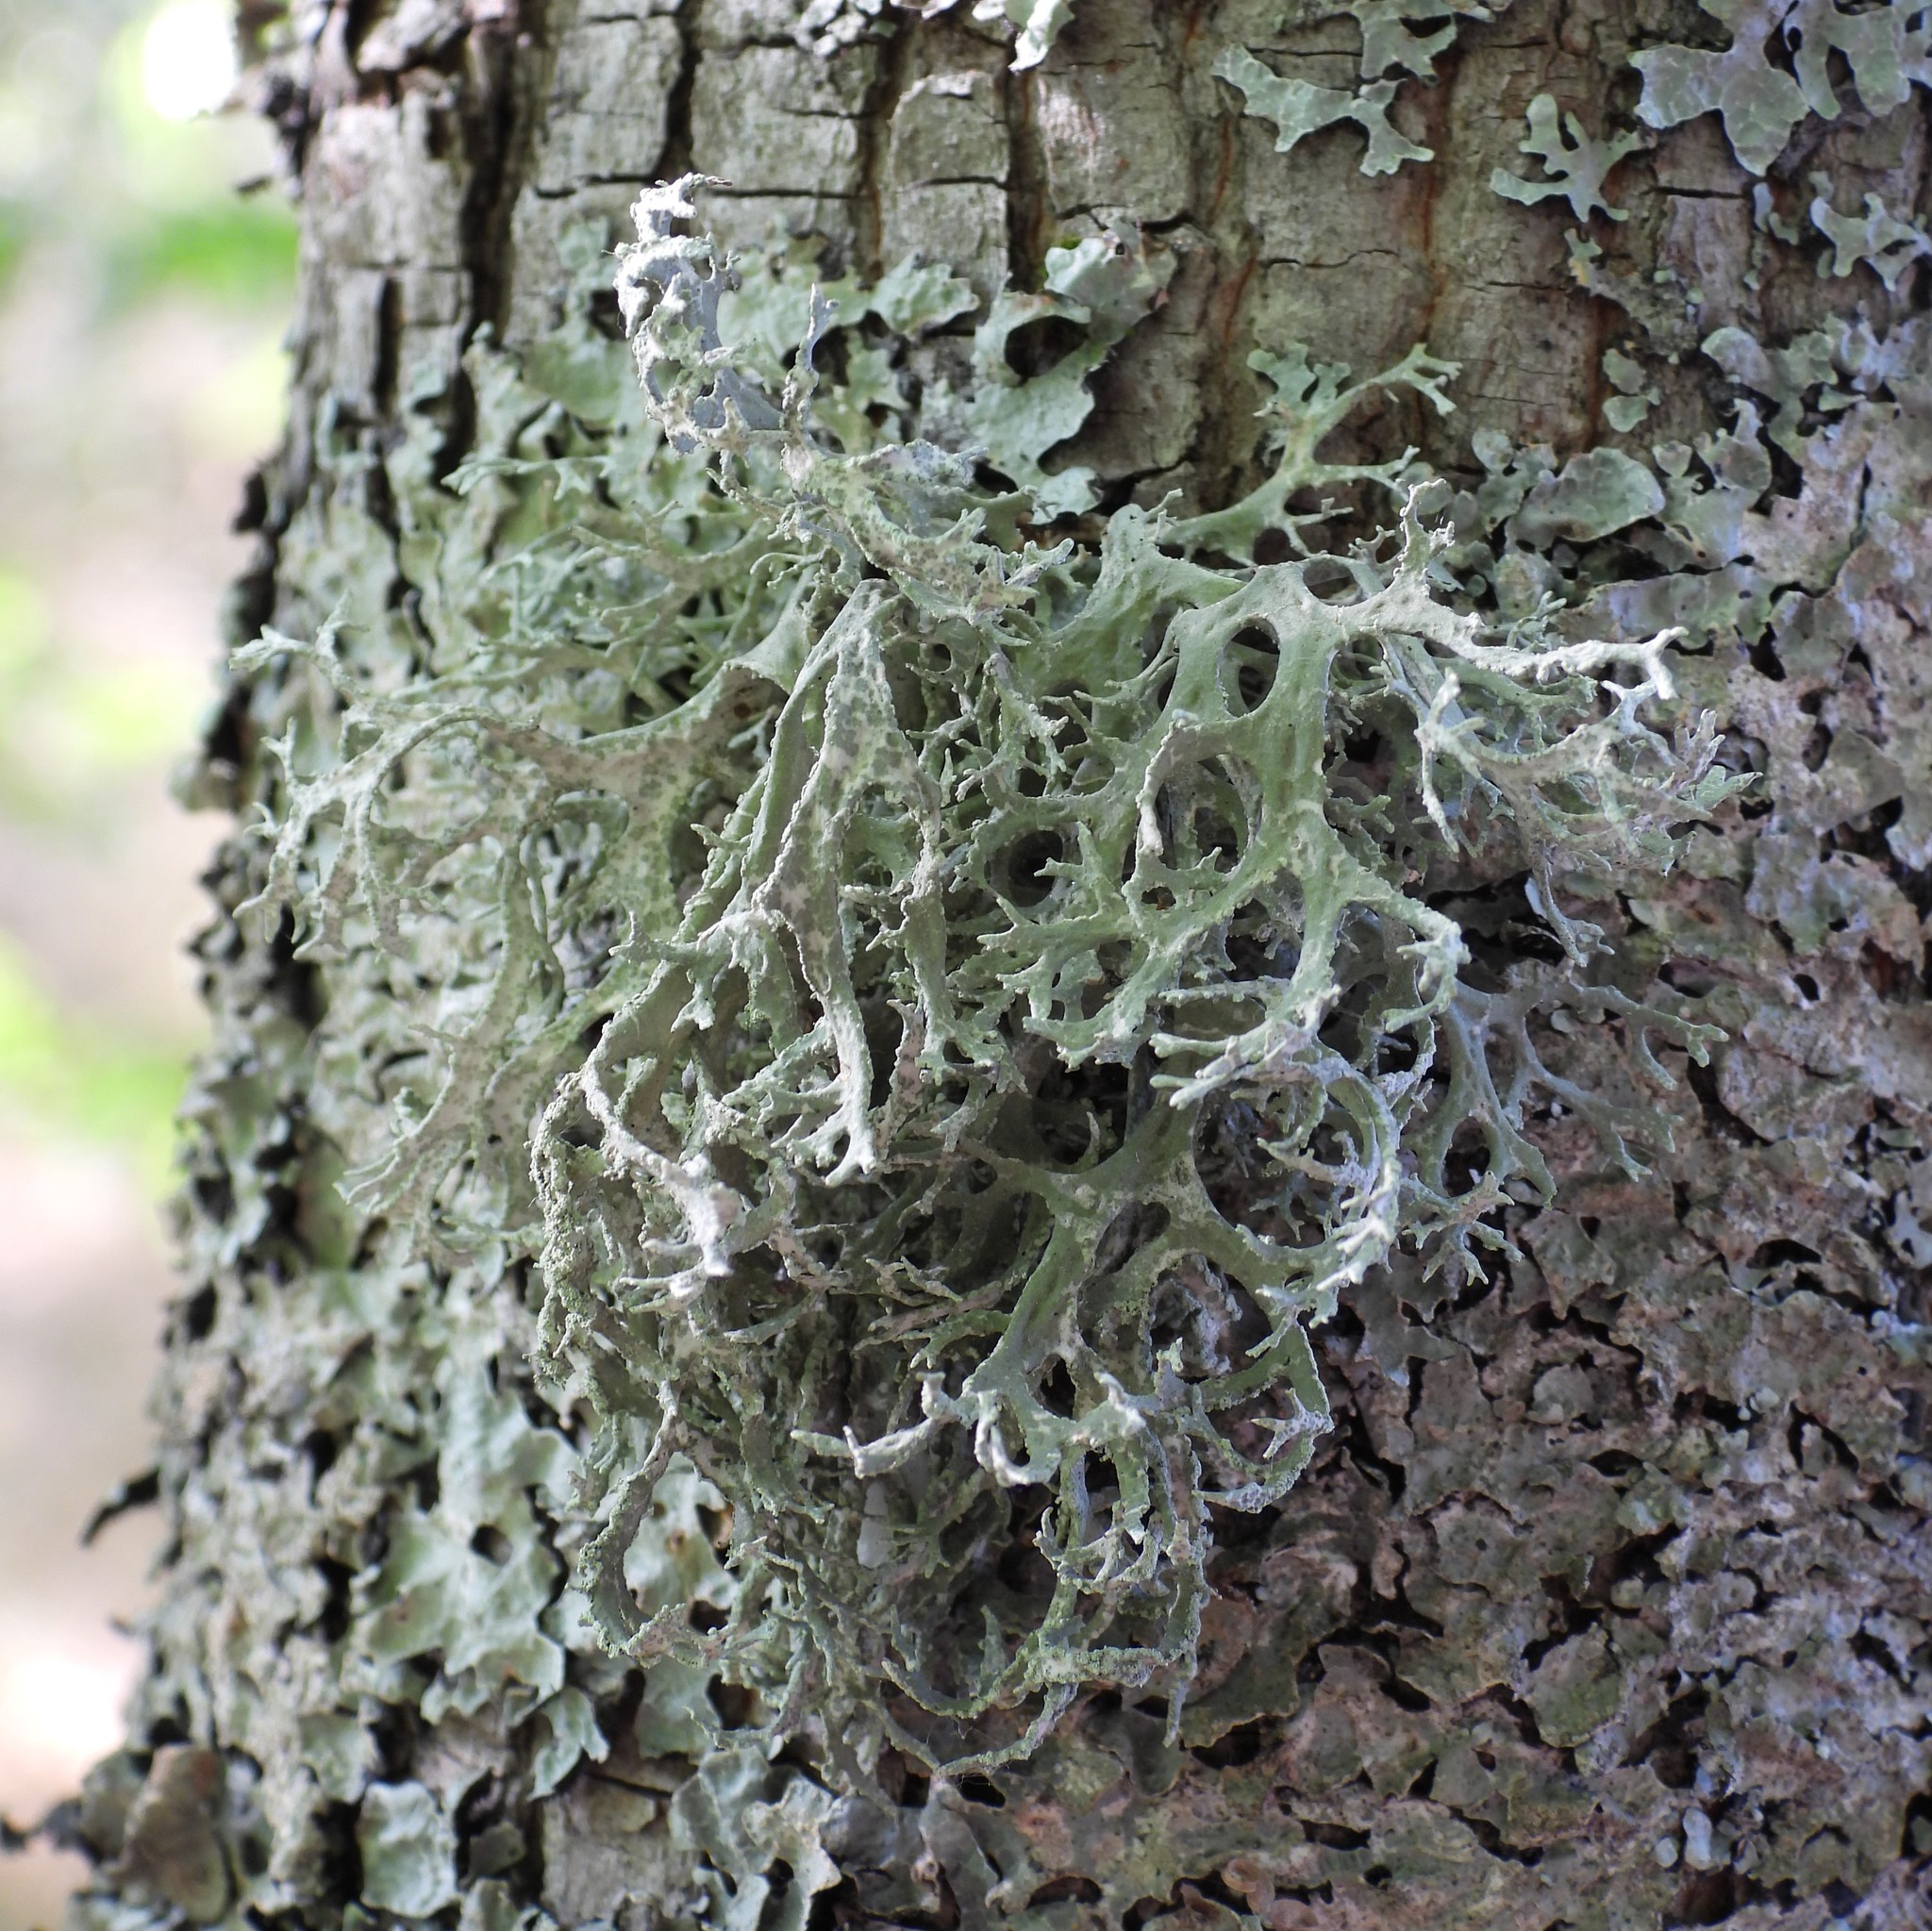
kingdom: Fungi
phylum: Ascomycota
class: Lecanoromycetes
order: Lecanorales
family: Parmeliaceae
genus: Evernia
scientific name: Evernia prunastri
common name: Oak moss
